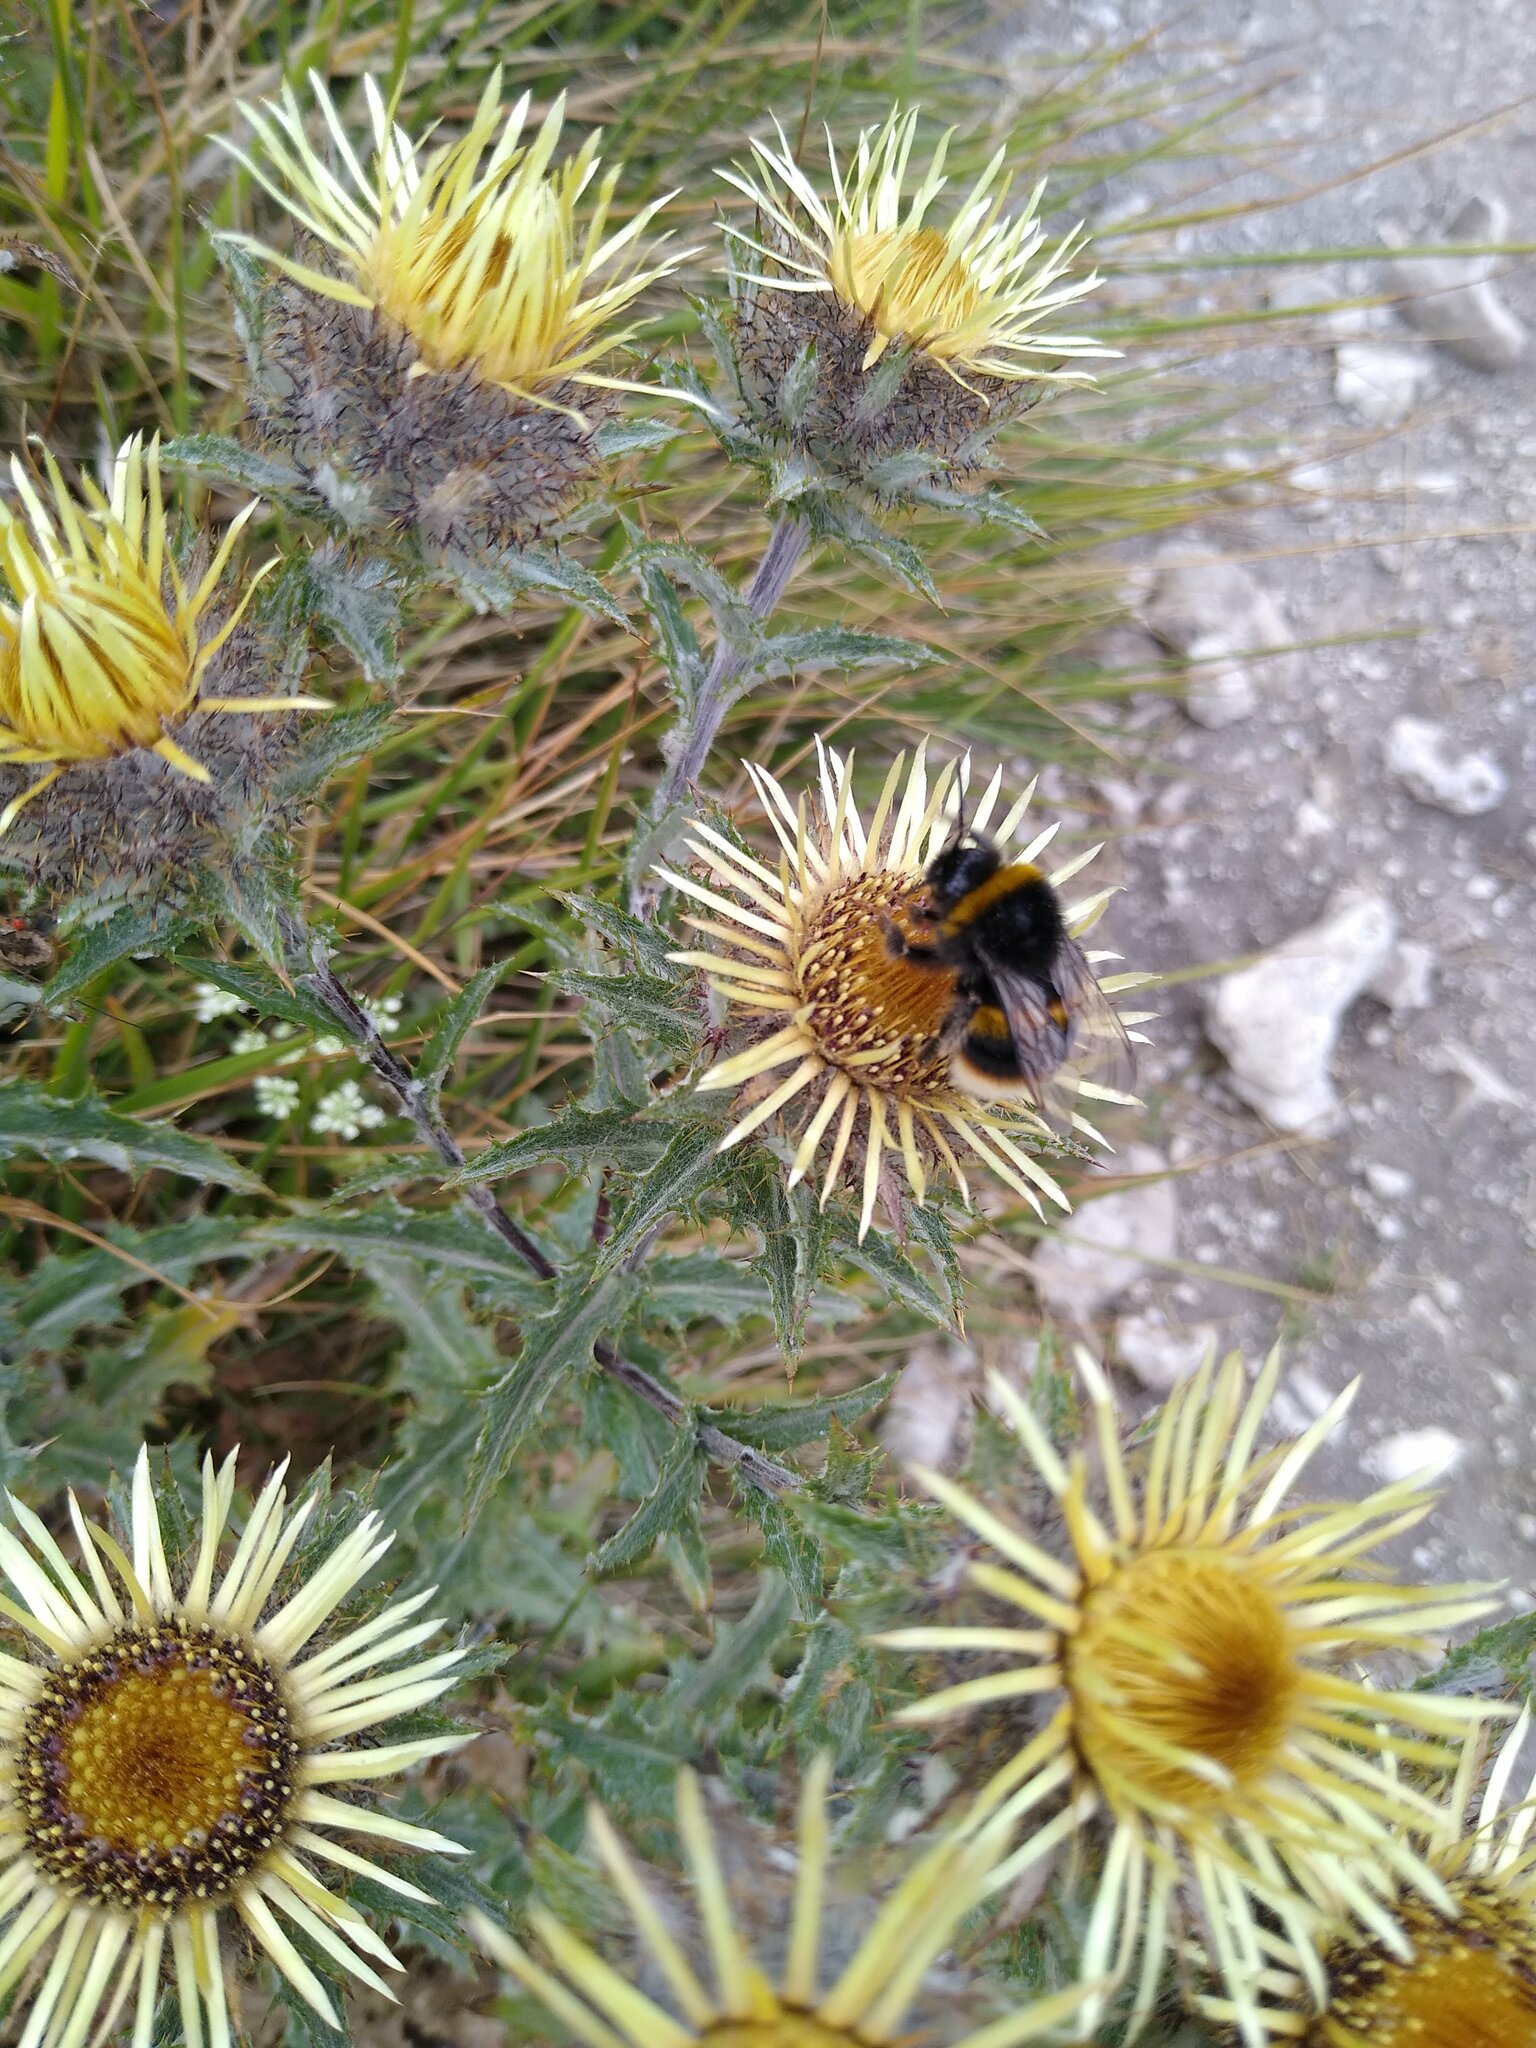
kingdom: Plantae
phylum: Tracheophyta
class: Magnoliopsida
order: Asterales
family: Asteraceae
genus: Carlina
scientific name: Carlina vulgaris
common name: Carline thistle
